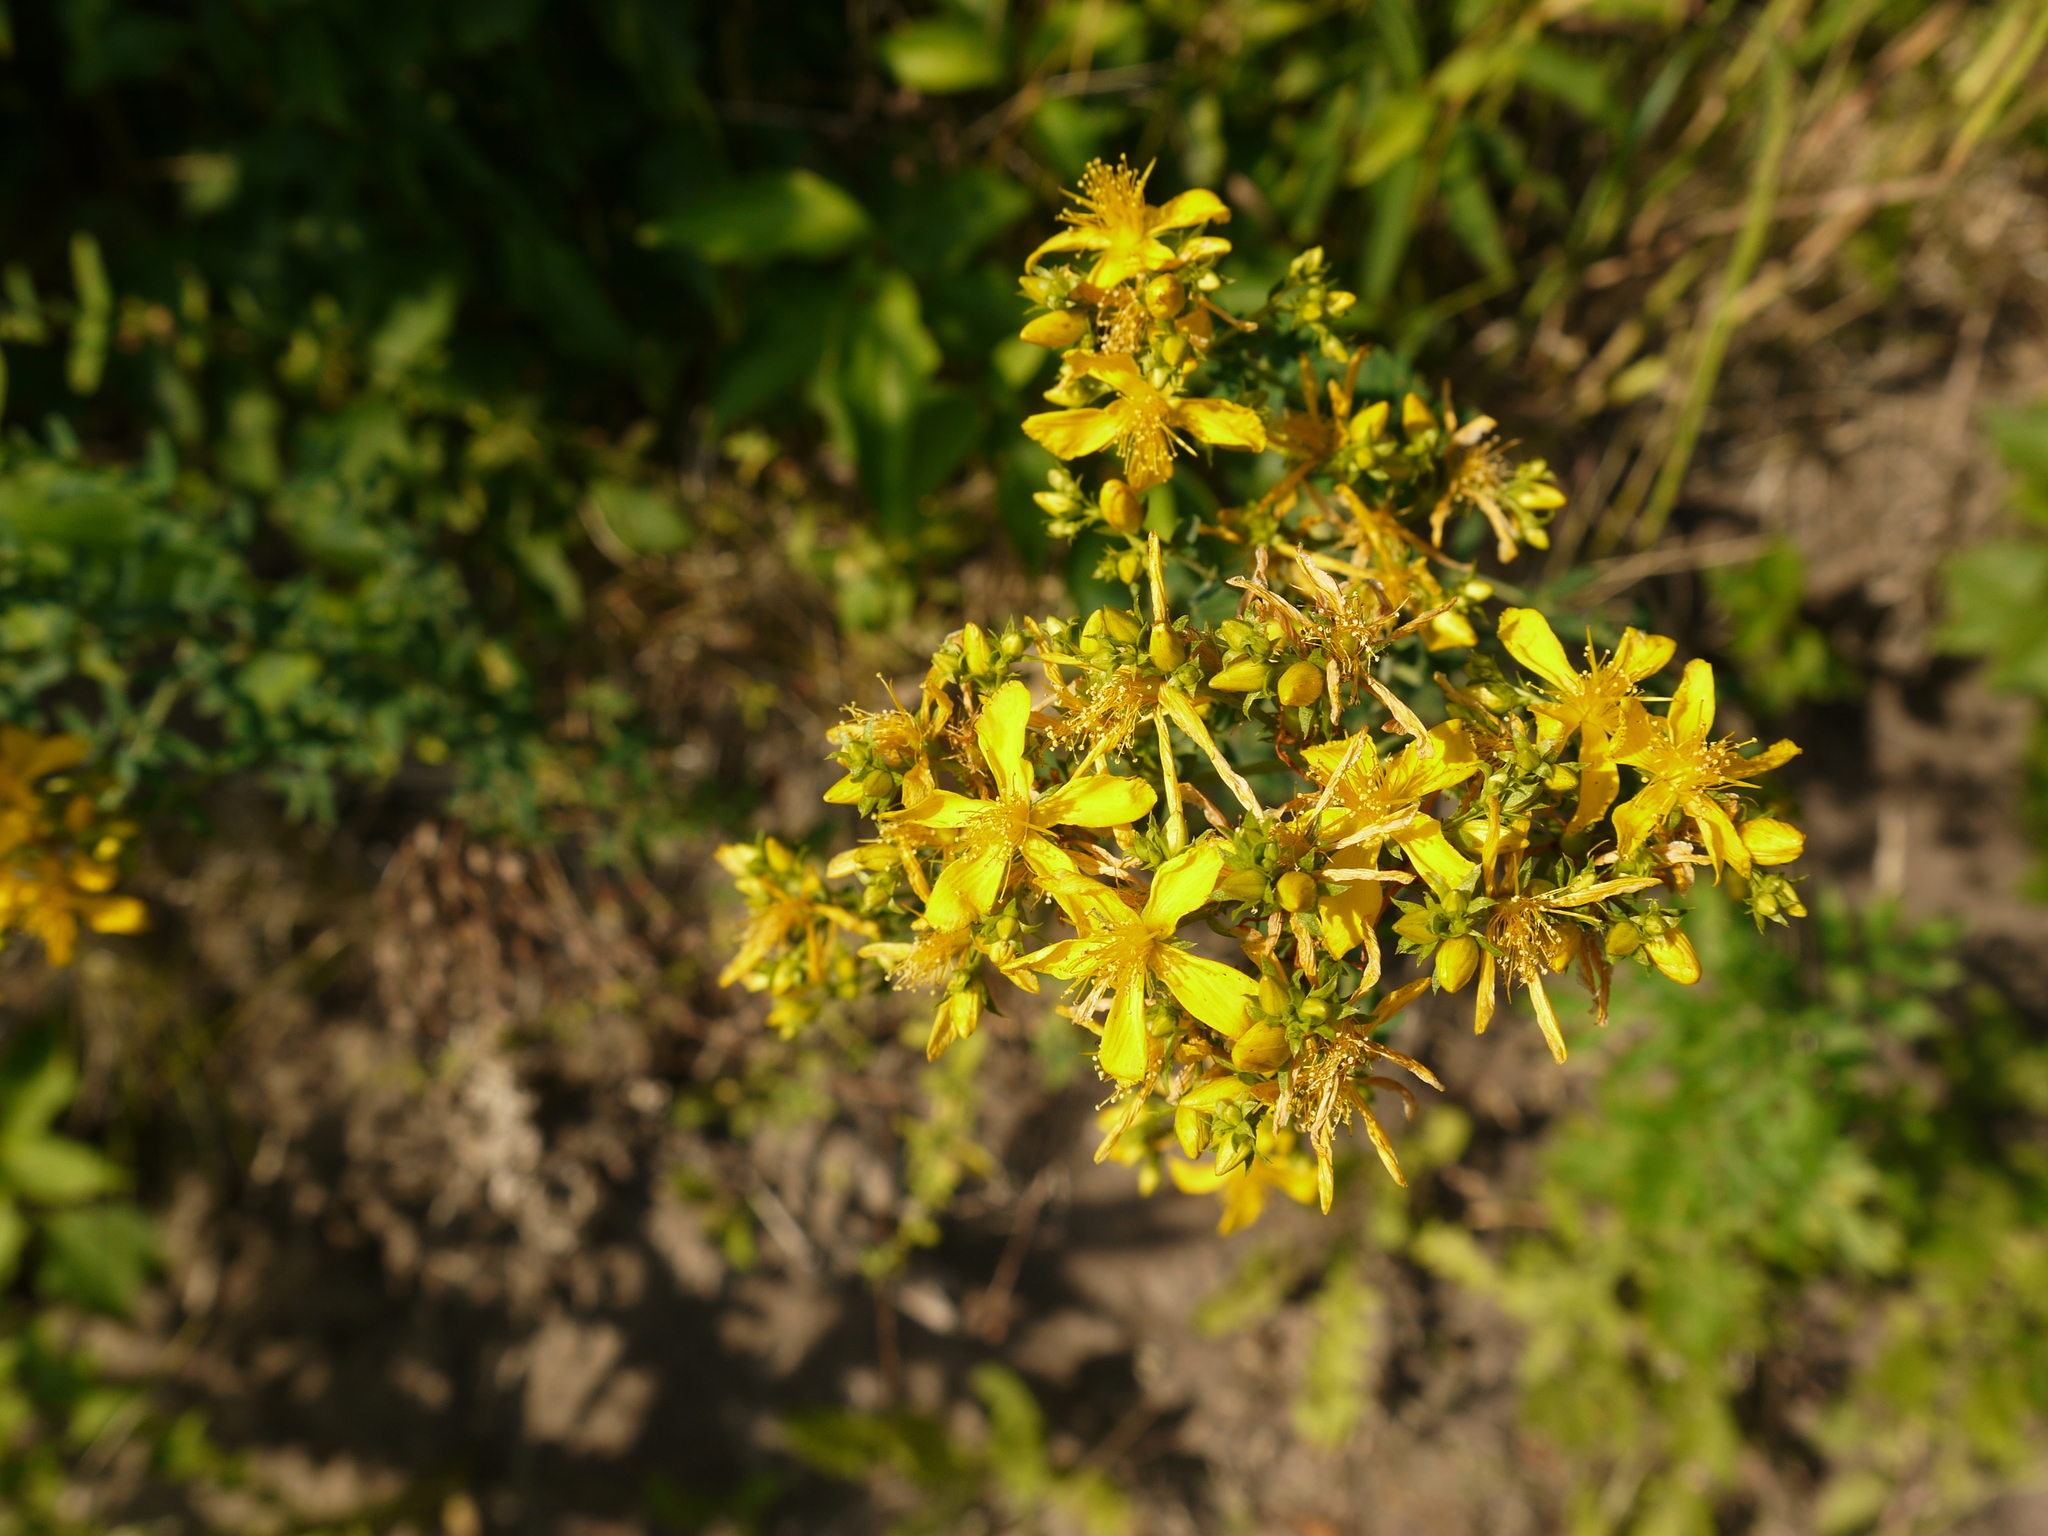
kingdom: Plantae
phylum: Tracheophyta
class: Magnoliopsida
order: Malpighiales
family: Hypericaceae
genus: Hypericum
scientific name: Hypericum perforatum
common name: Common st. johnswort
